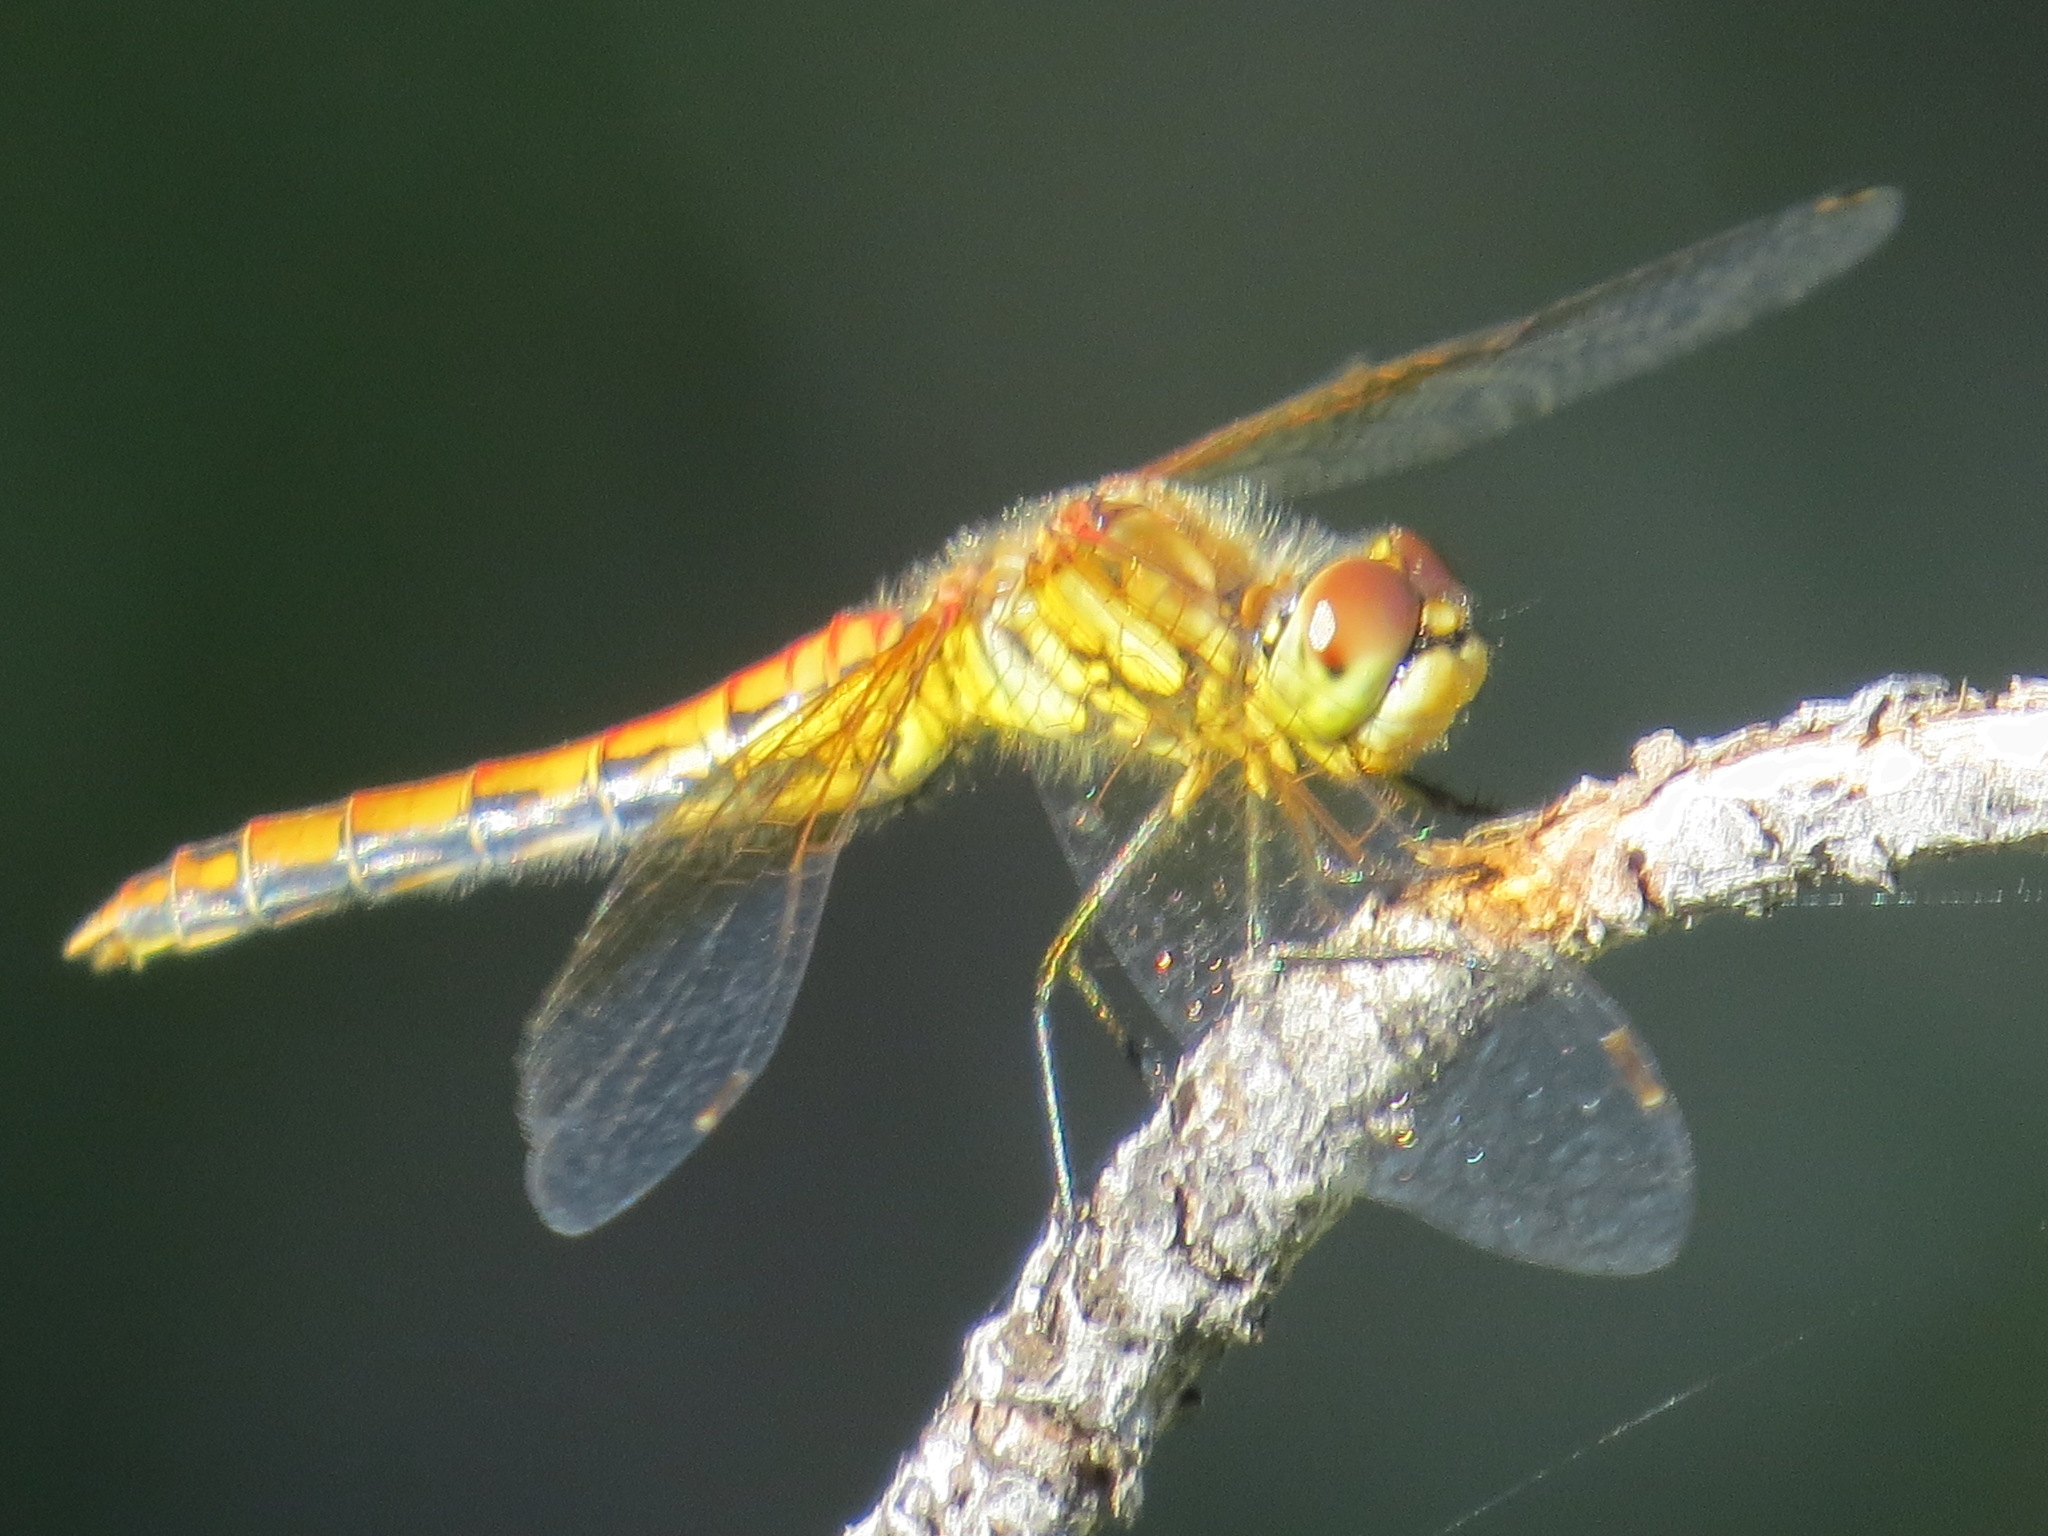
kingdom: Animalia
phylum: Arthropoda
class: Insecta
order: Odonata
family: Libellulidae
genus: Sympetrum
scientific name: Sympetrum semicinctum
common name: Band-winged meadowhawk
